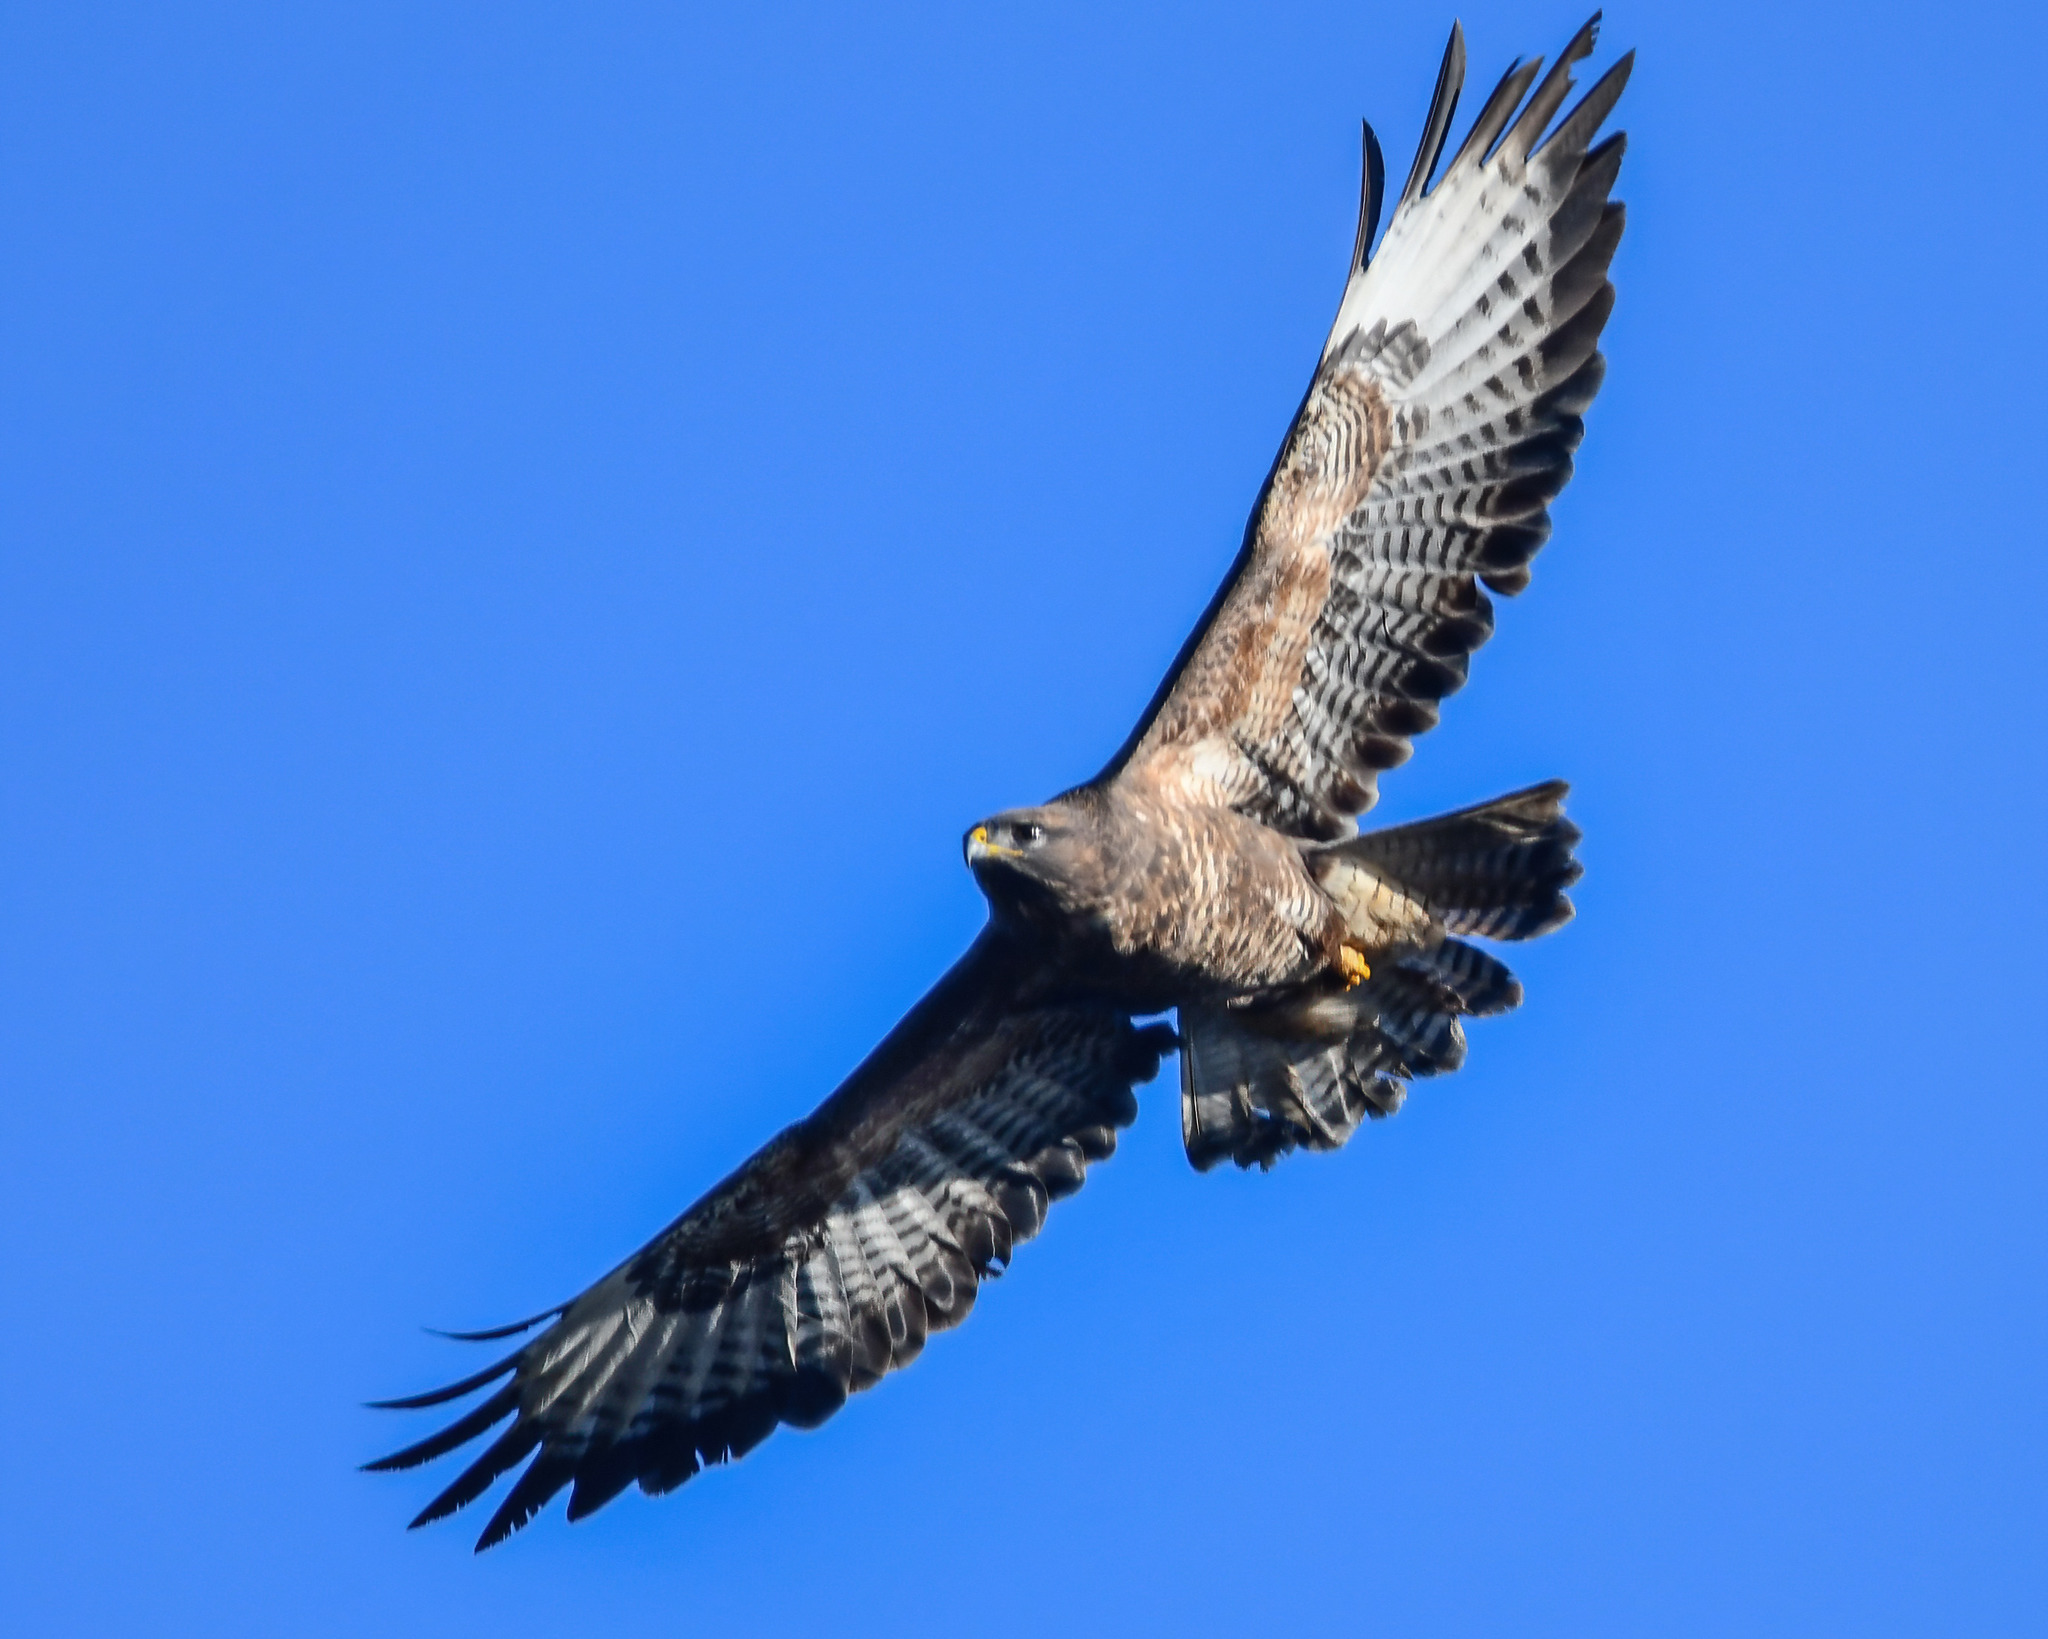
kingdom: Animalia
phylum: Chordata
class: Aves
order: Accipitriformes
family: Accipitridae
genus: Buteo
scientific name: Buteo buteo
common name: Common buzzard
